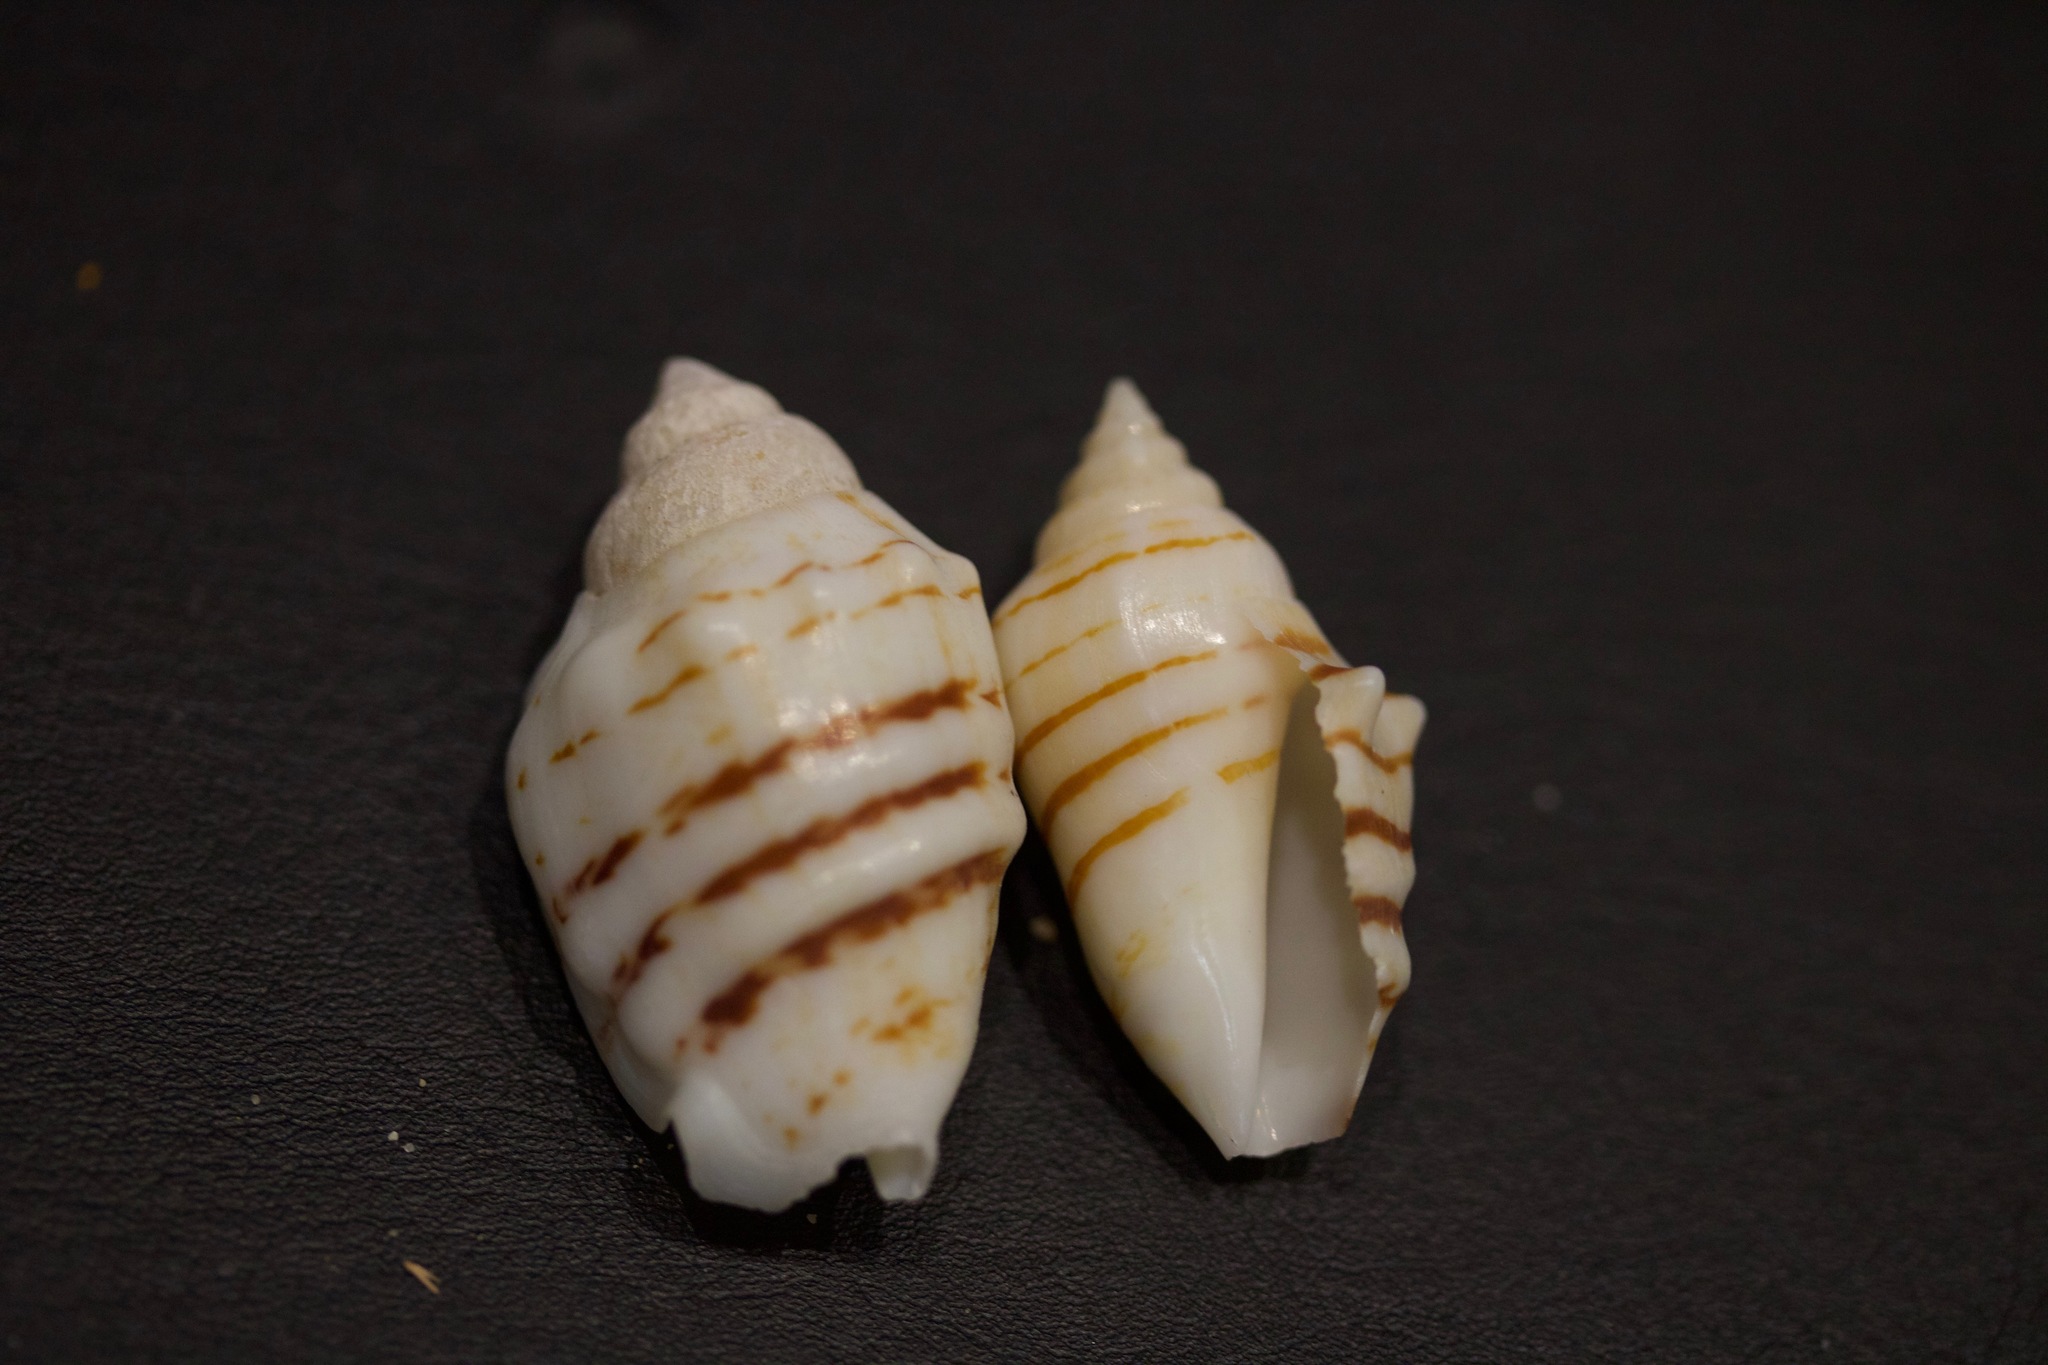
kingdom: Animalia
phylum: Mollusca
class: Gastropoda
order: Littorinimorpha
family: Strombidae
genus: Conomurex
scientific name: Conomurex fasciatus
